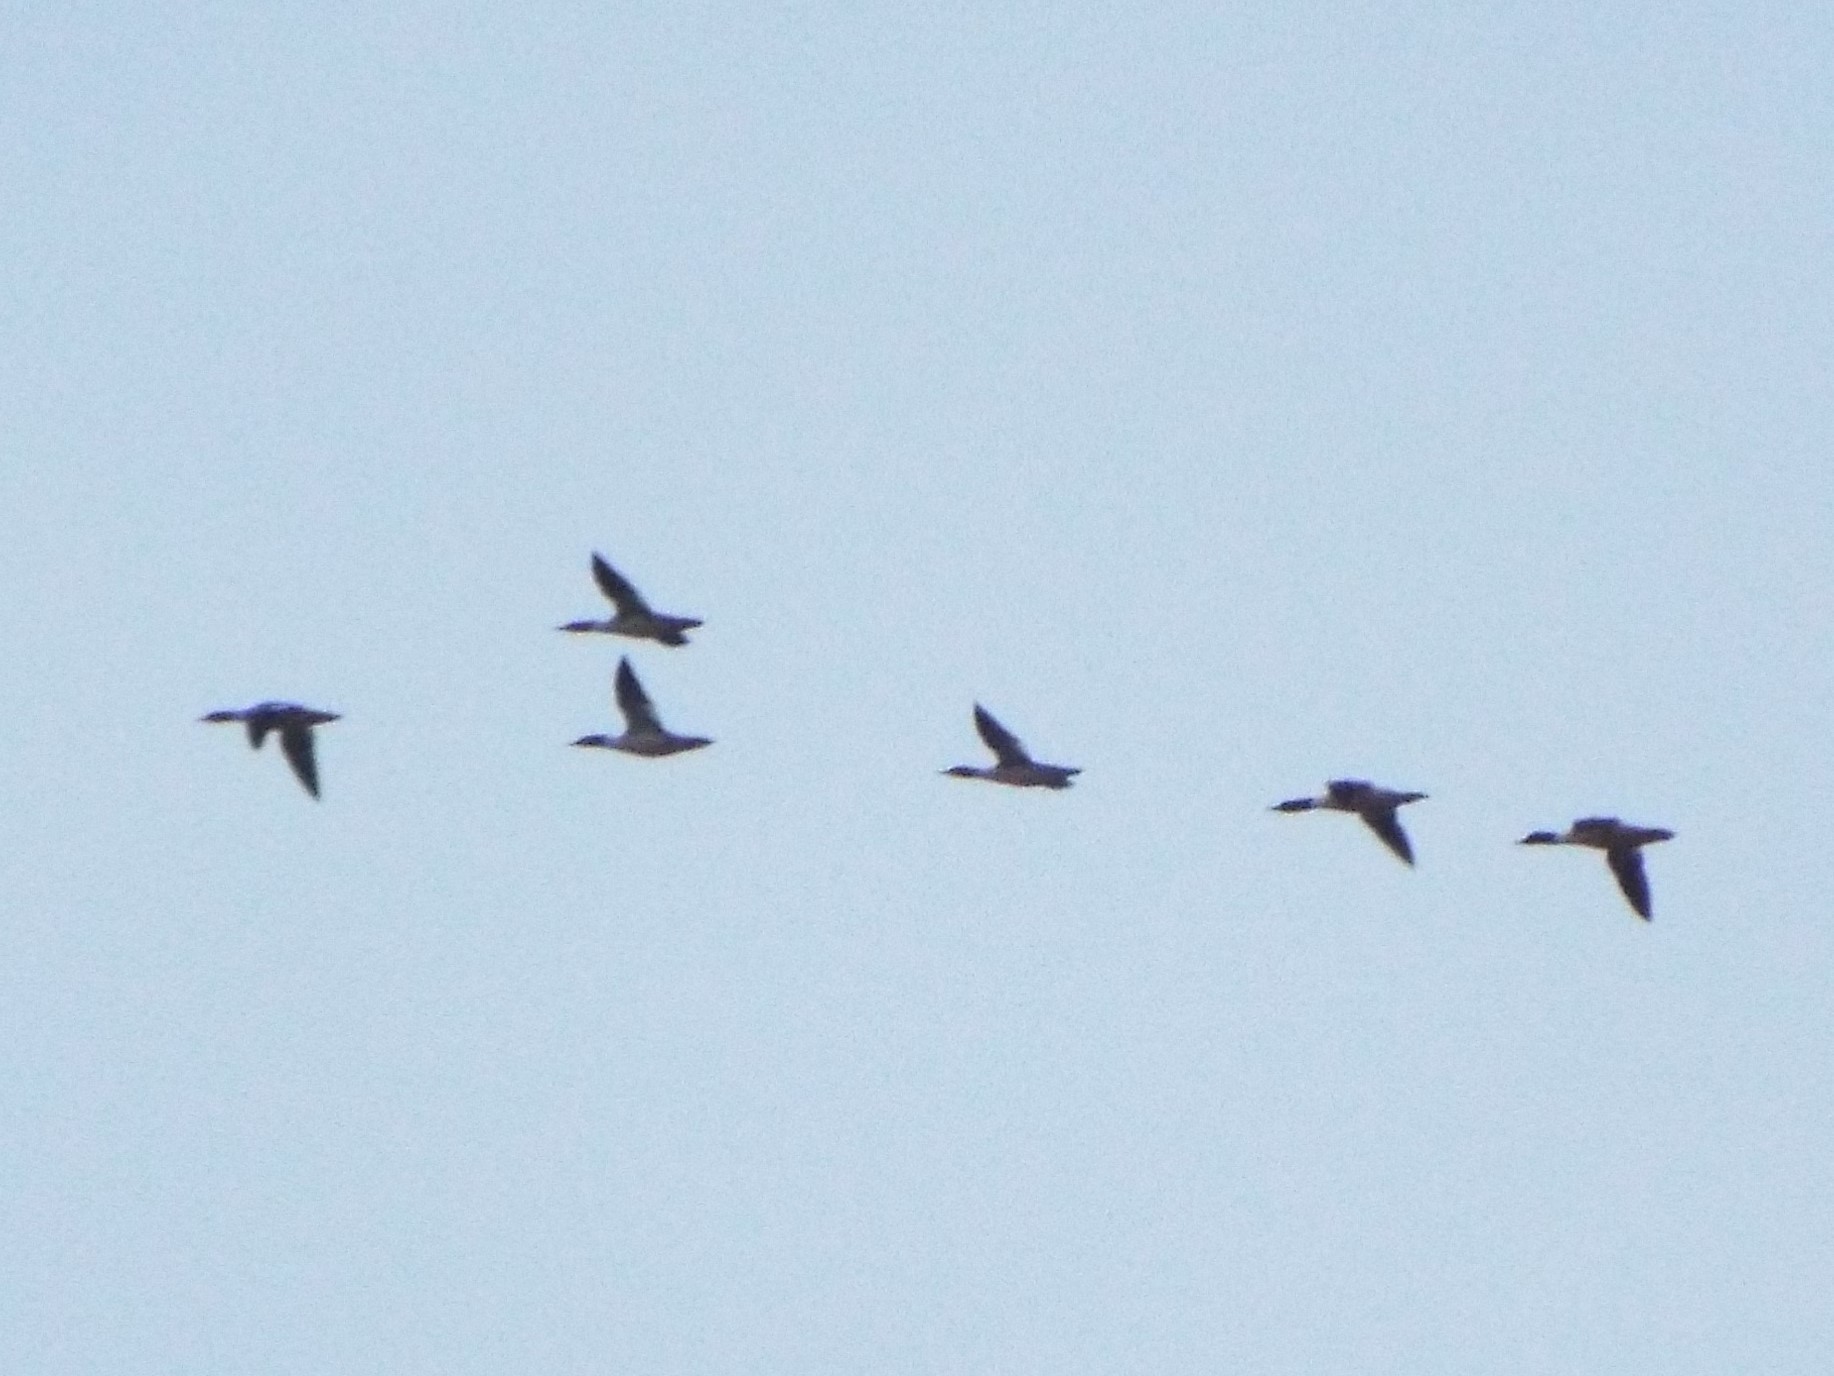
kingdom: Animalia
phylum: Chordata
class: Aves
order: Anseriformes
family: Anatidae
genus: Mergus
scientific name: Mergus merganser
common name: Common merganser
